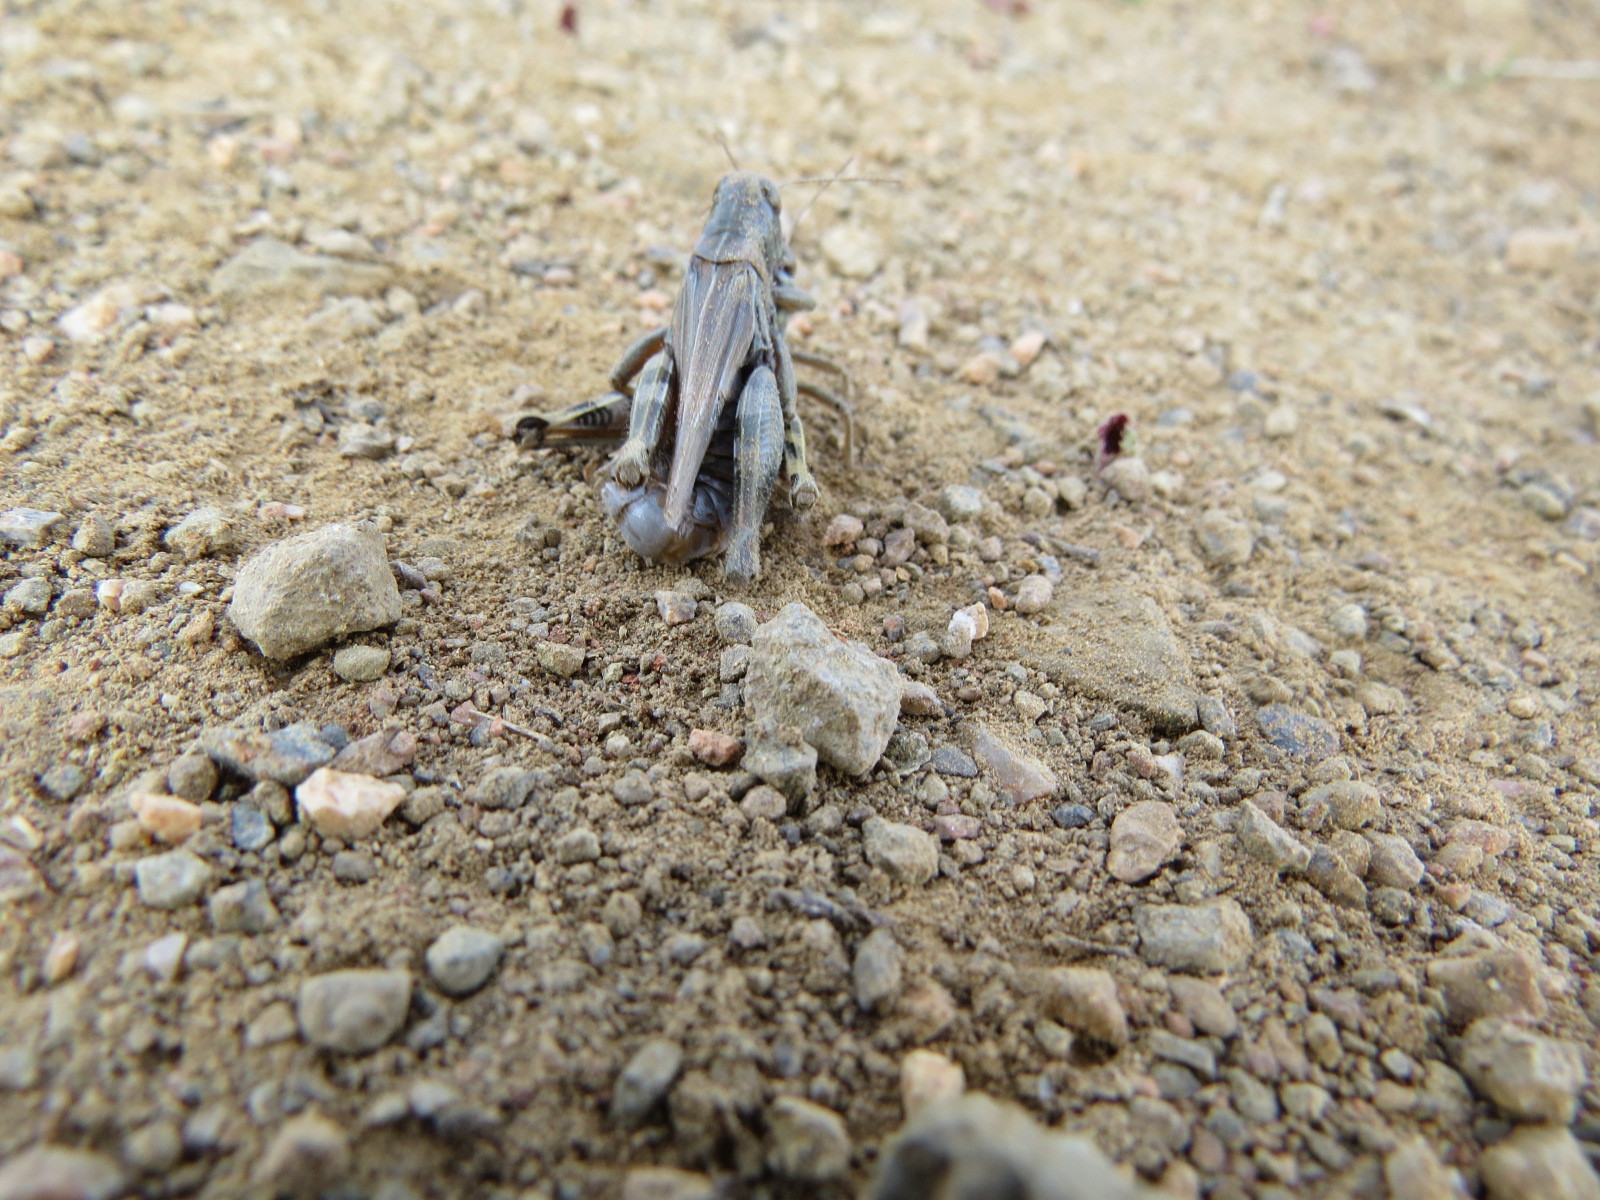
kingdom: Animalia
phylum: Arthropoda
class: Insecta
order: Orthoptera
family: Acrididae
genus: Melanoplus
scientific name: Melanoplus devastator
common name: Devastating grasshopper
